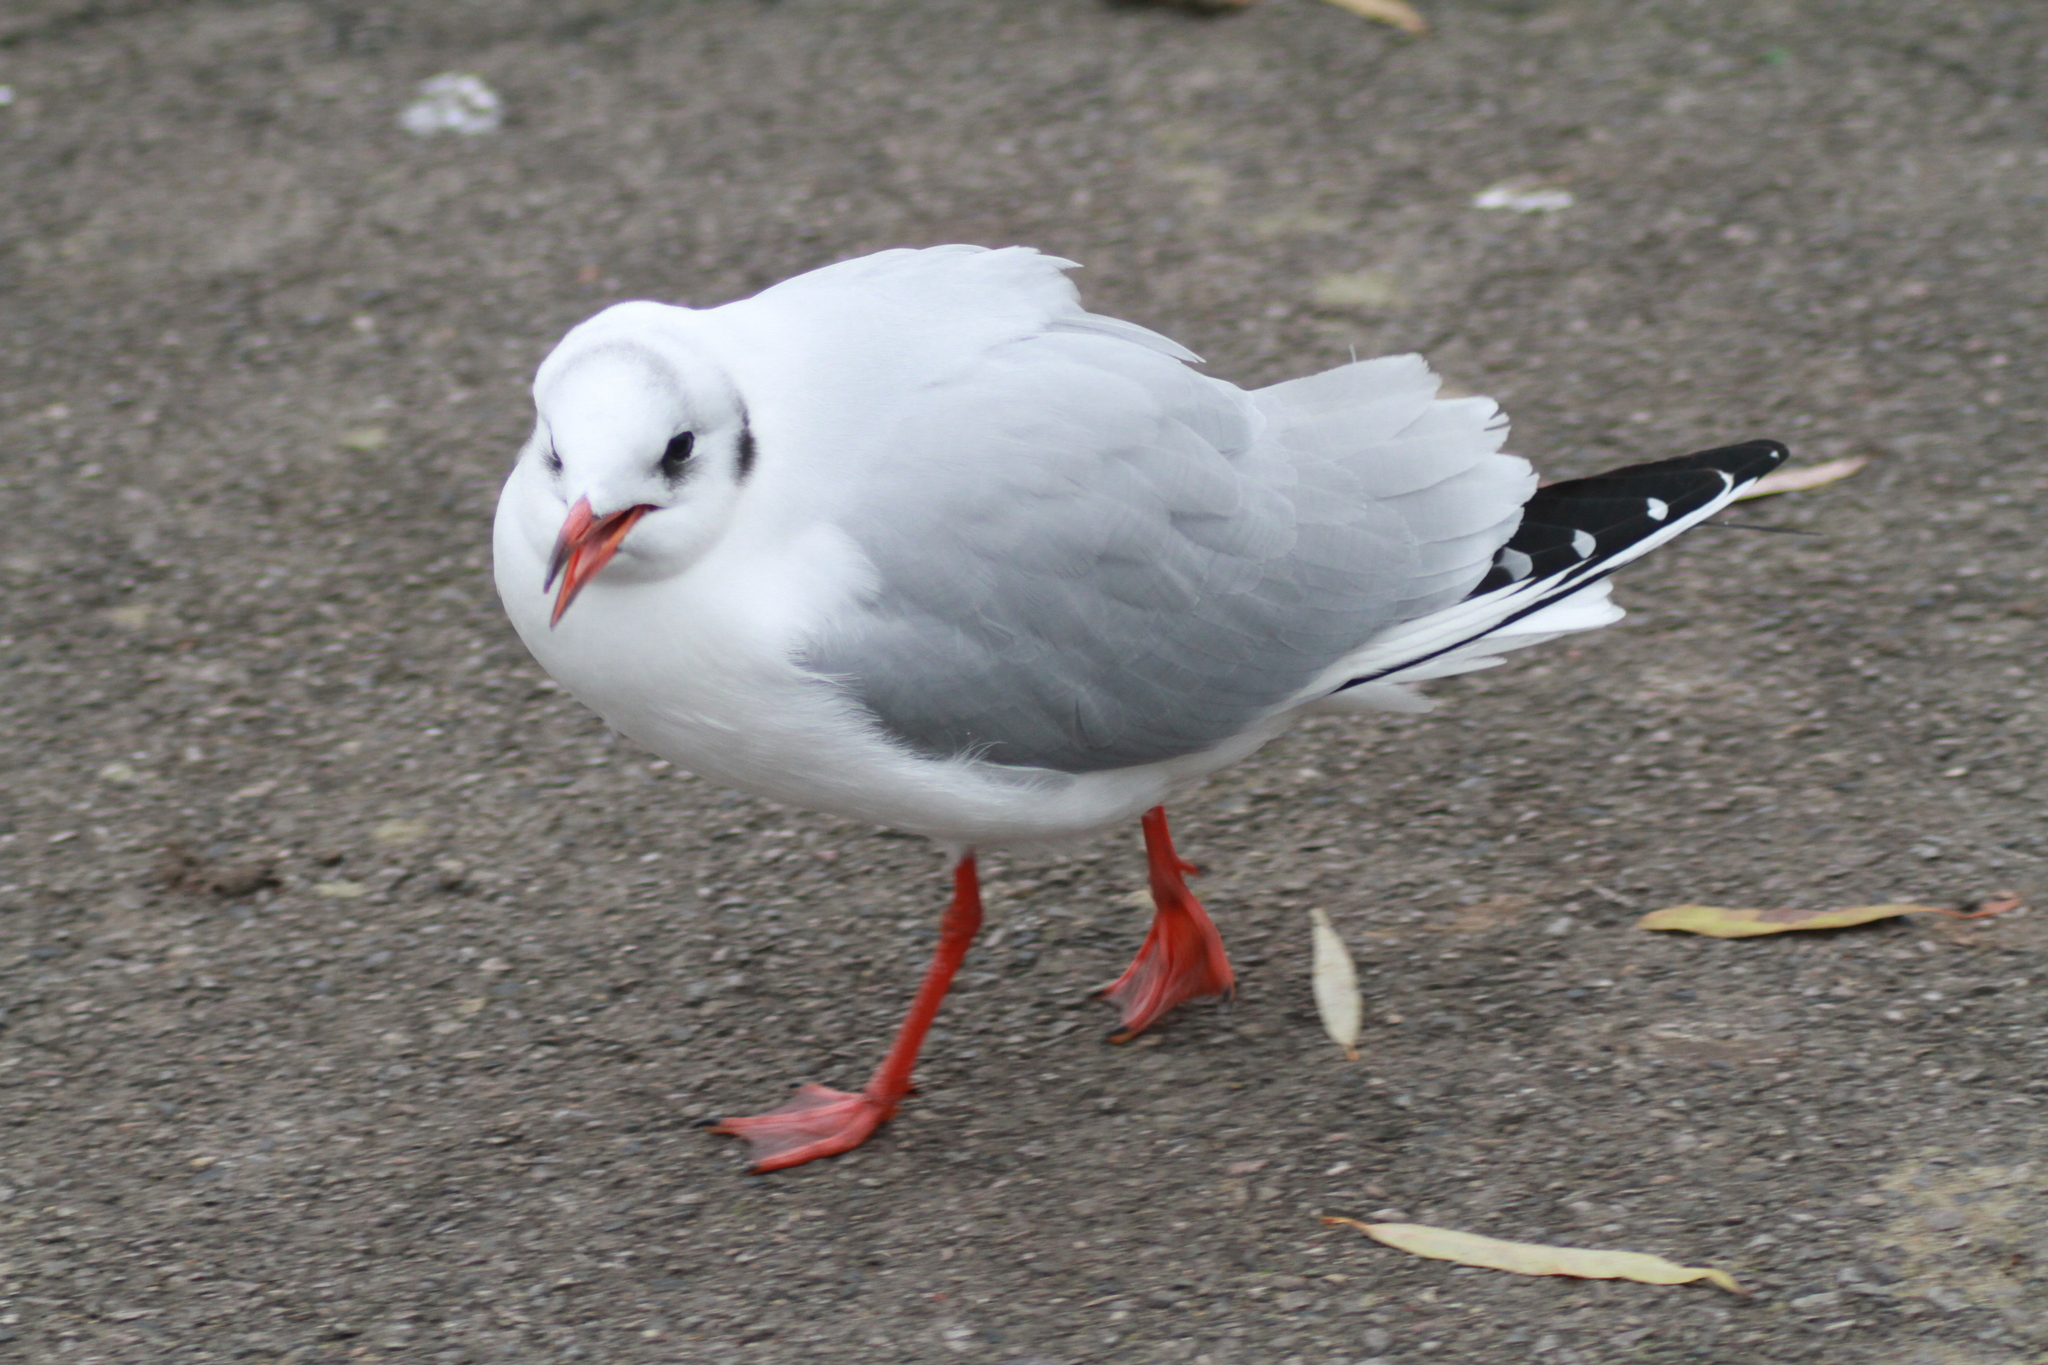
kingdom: Animalia
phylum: Chordata
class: Aves
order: Charadriiformes
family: Laridae
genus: Chroicocephalus
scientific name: Chroicocephalus ridibundus
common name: Black-headed gull
